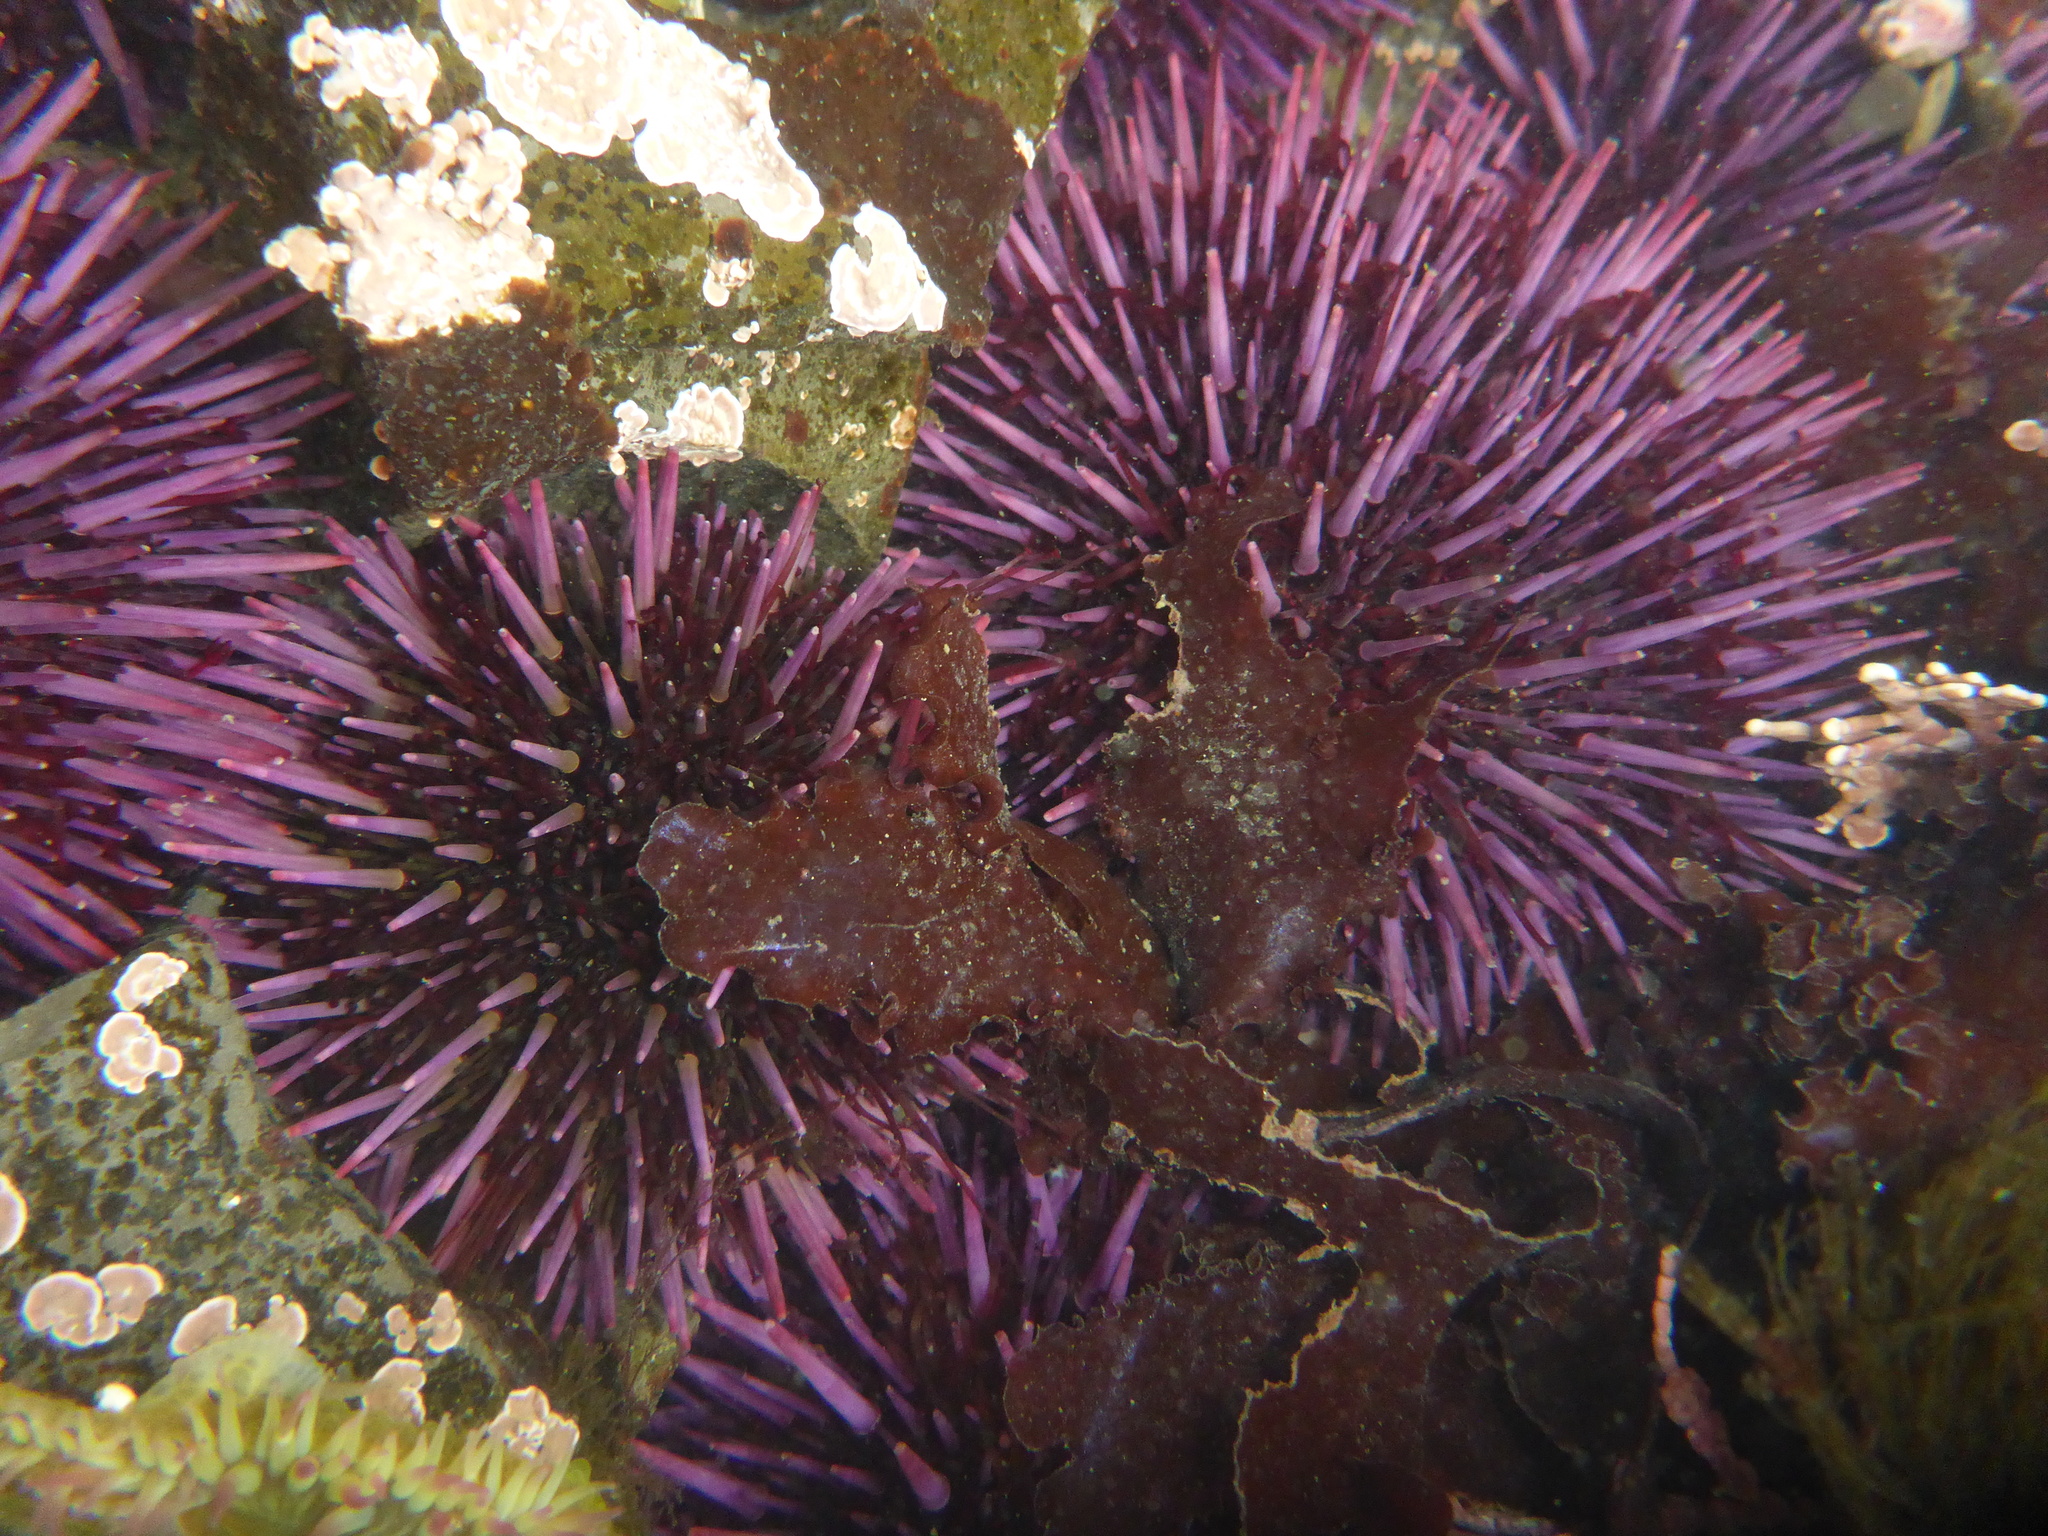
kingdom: Animalia
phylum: Echinodermata
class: Echinoidea
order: Camarodonta
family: Strongylocentrotidae
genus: Strongylocentrotus
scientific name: Strongylocentrotus purpuratus
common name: Purple sea urchin
